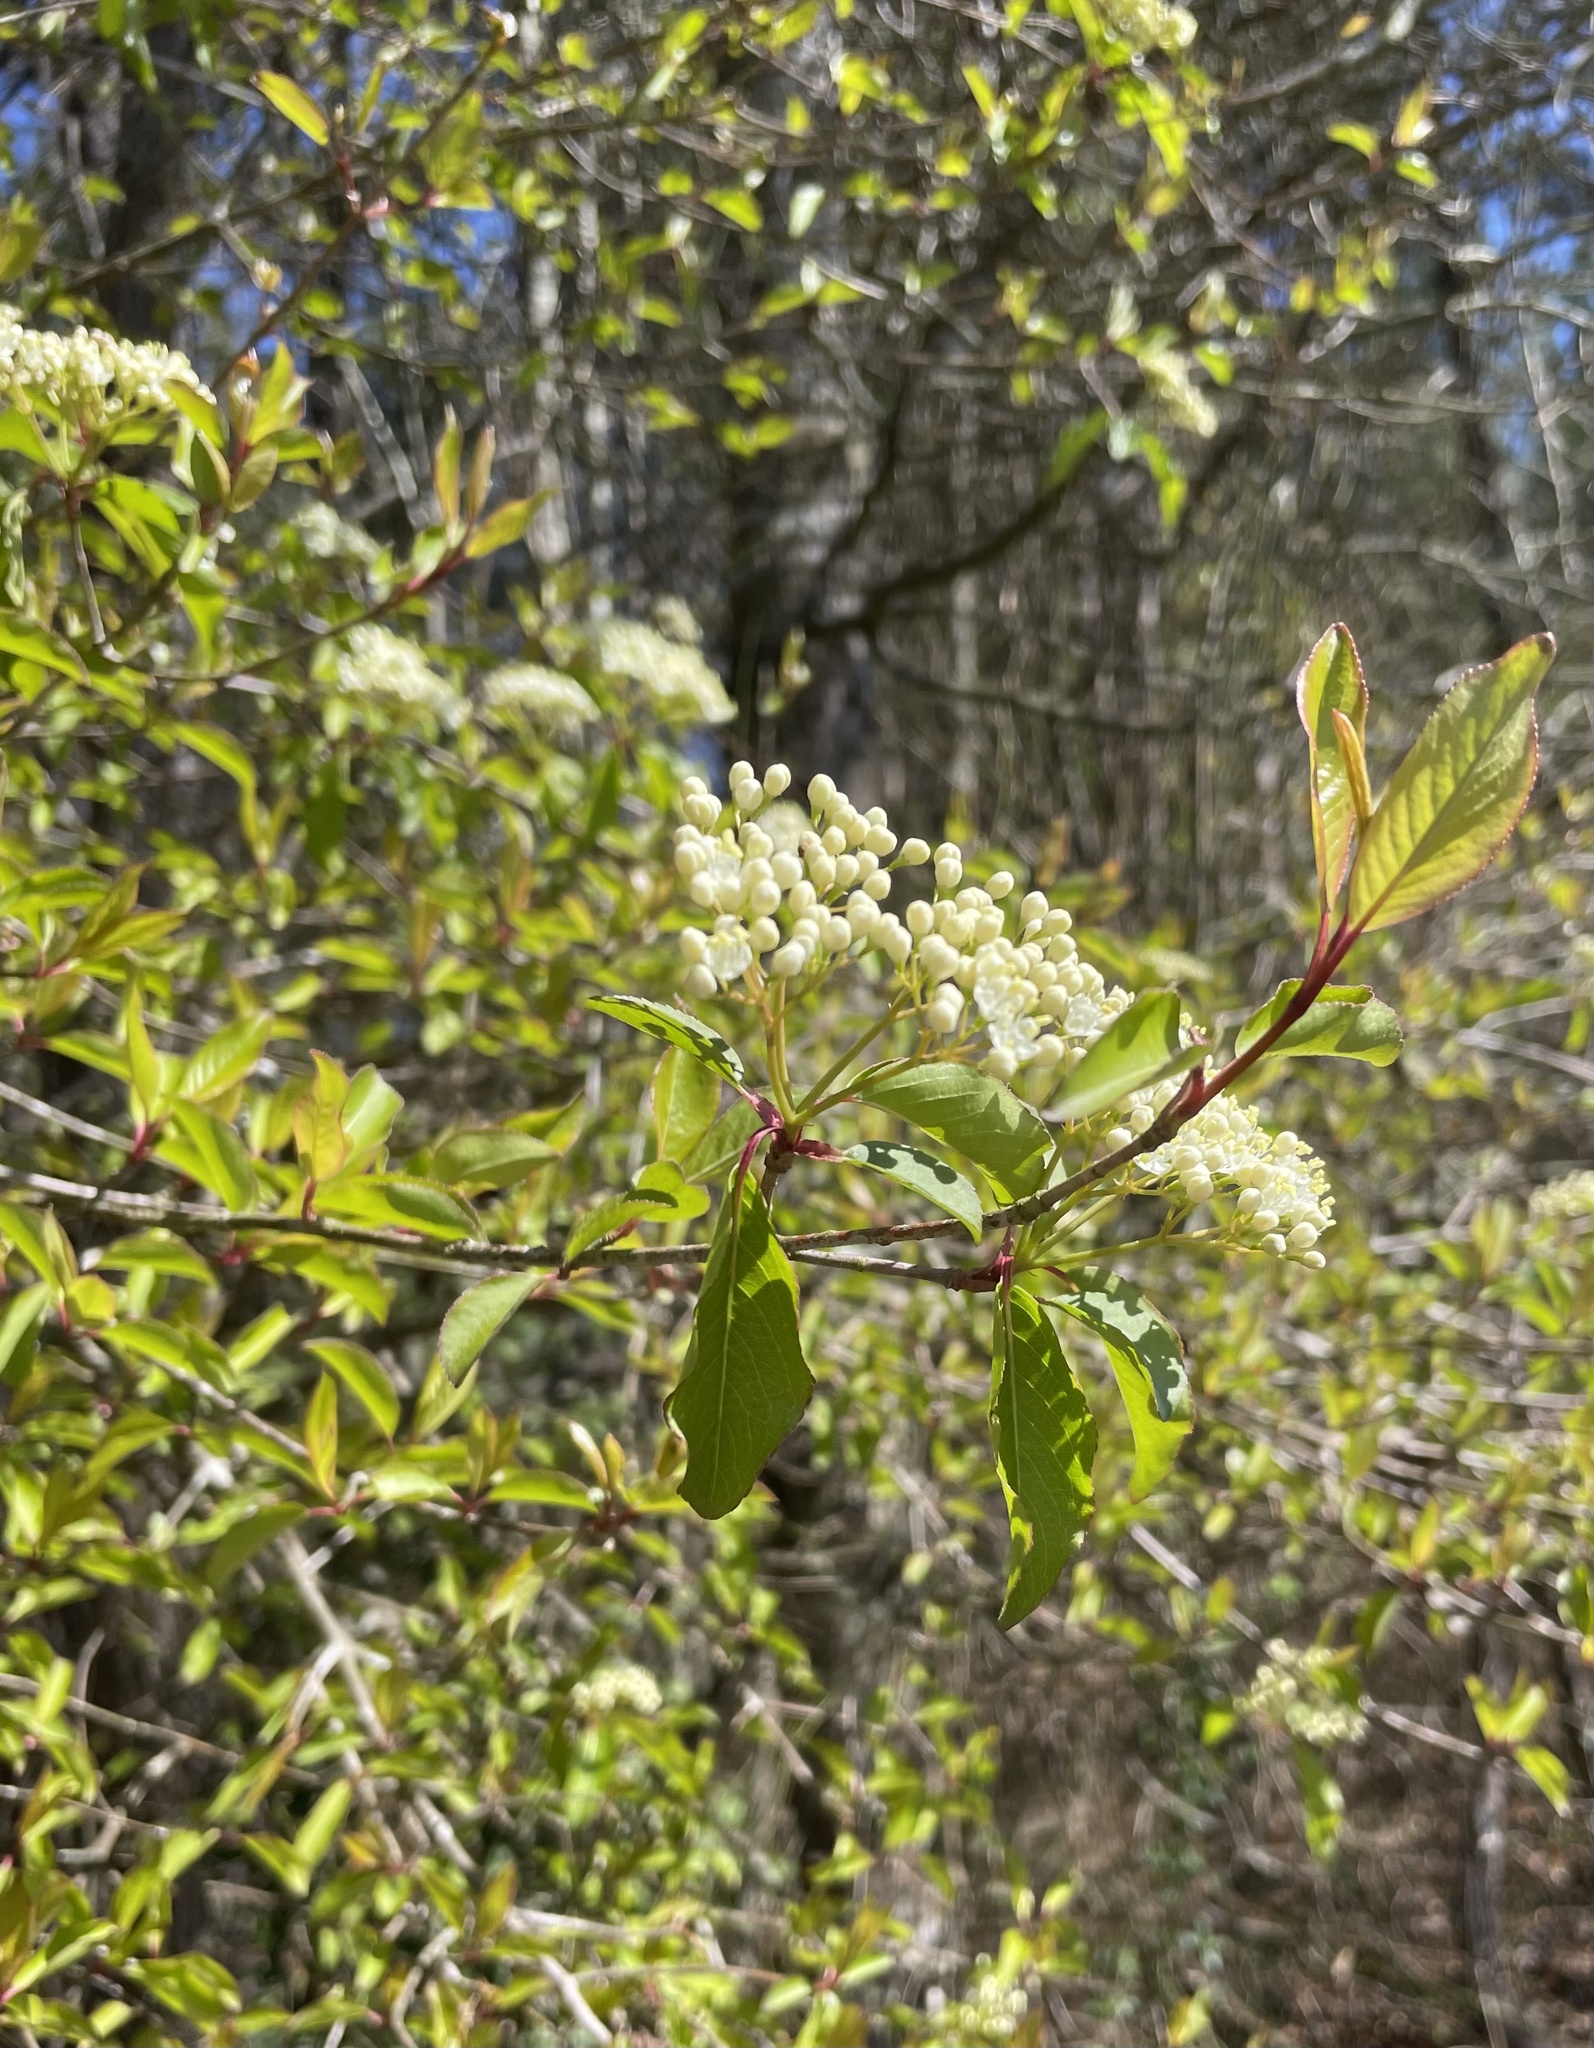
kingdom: Plantae
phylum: Tracheophyta
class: Magnoliopsida
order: Dipsacales
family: Viburnaceae
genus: Viburnum
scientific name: Viburnum prunifolium
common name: Black haw
